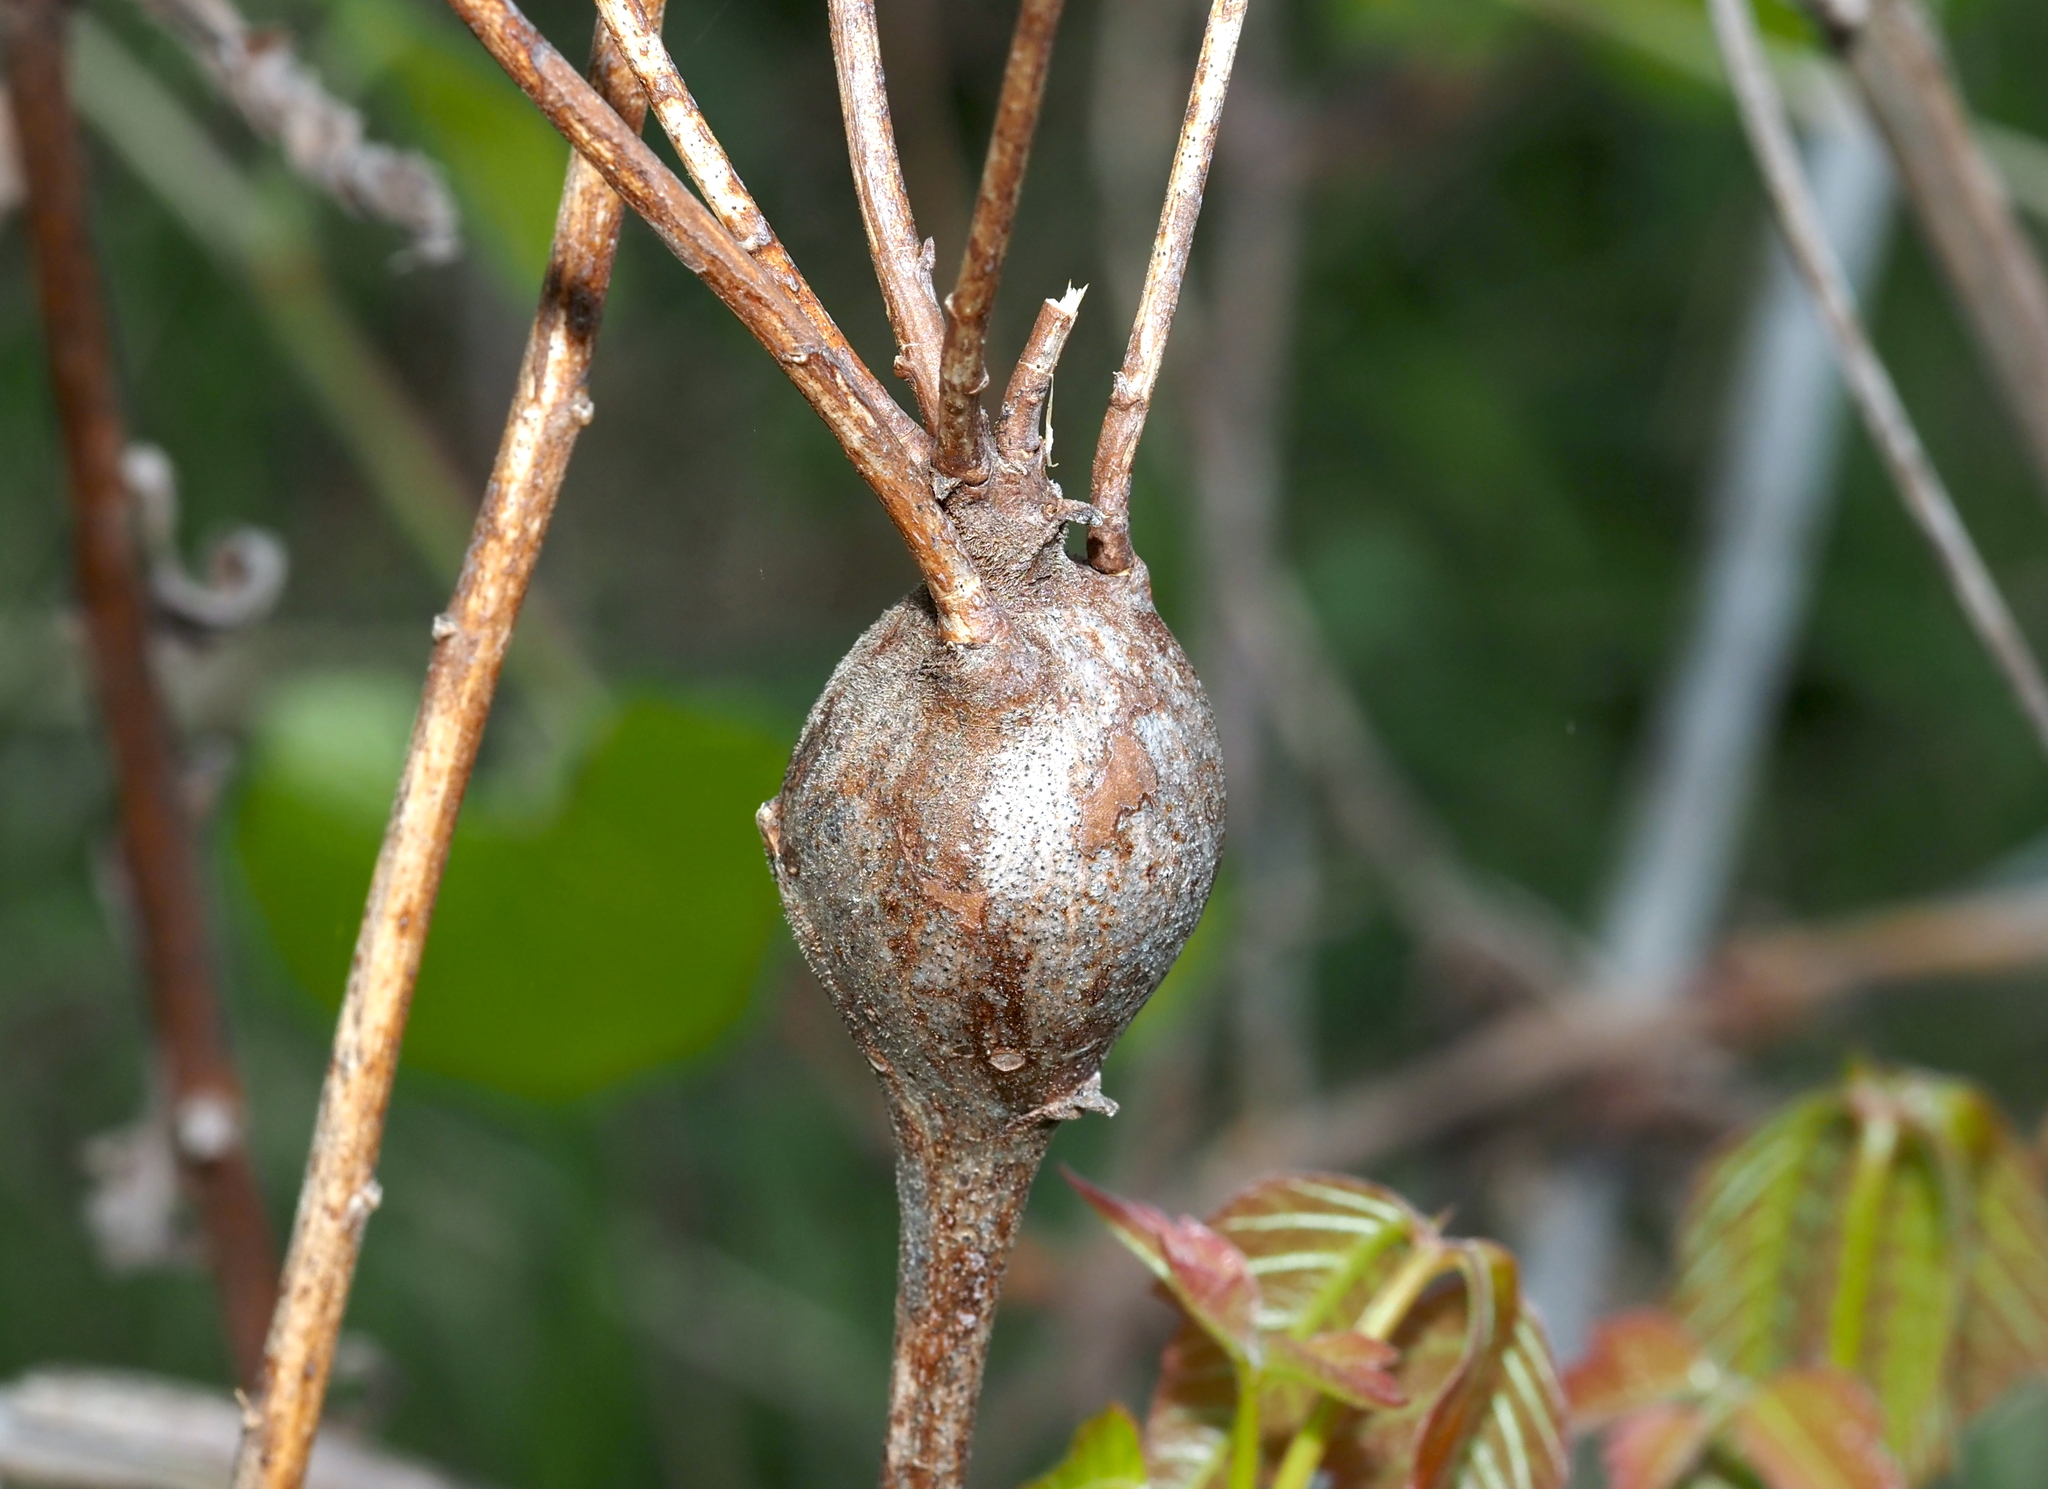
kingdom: Animalia
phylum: Arthropoda
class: Insecta
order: Diptera
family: Tephritidae
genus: Eurosta
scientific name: Eurosta solidaginis
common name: Goldenrod gall fly
